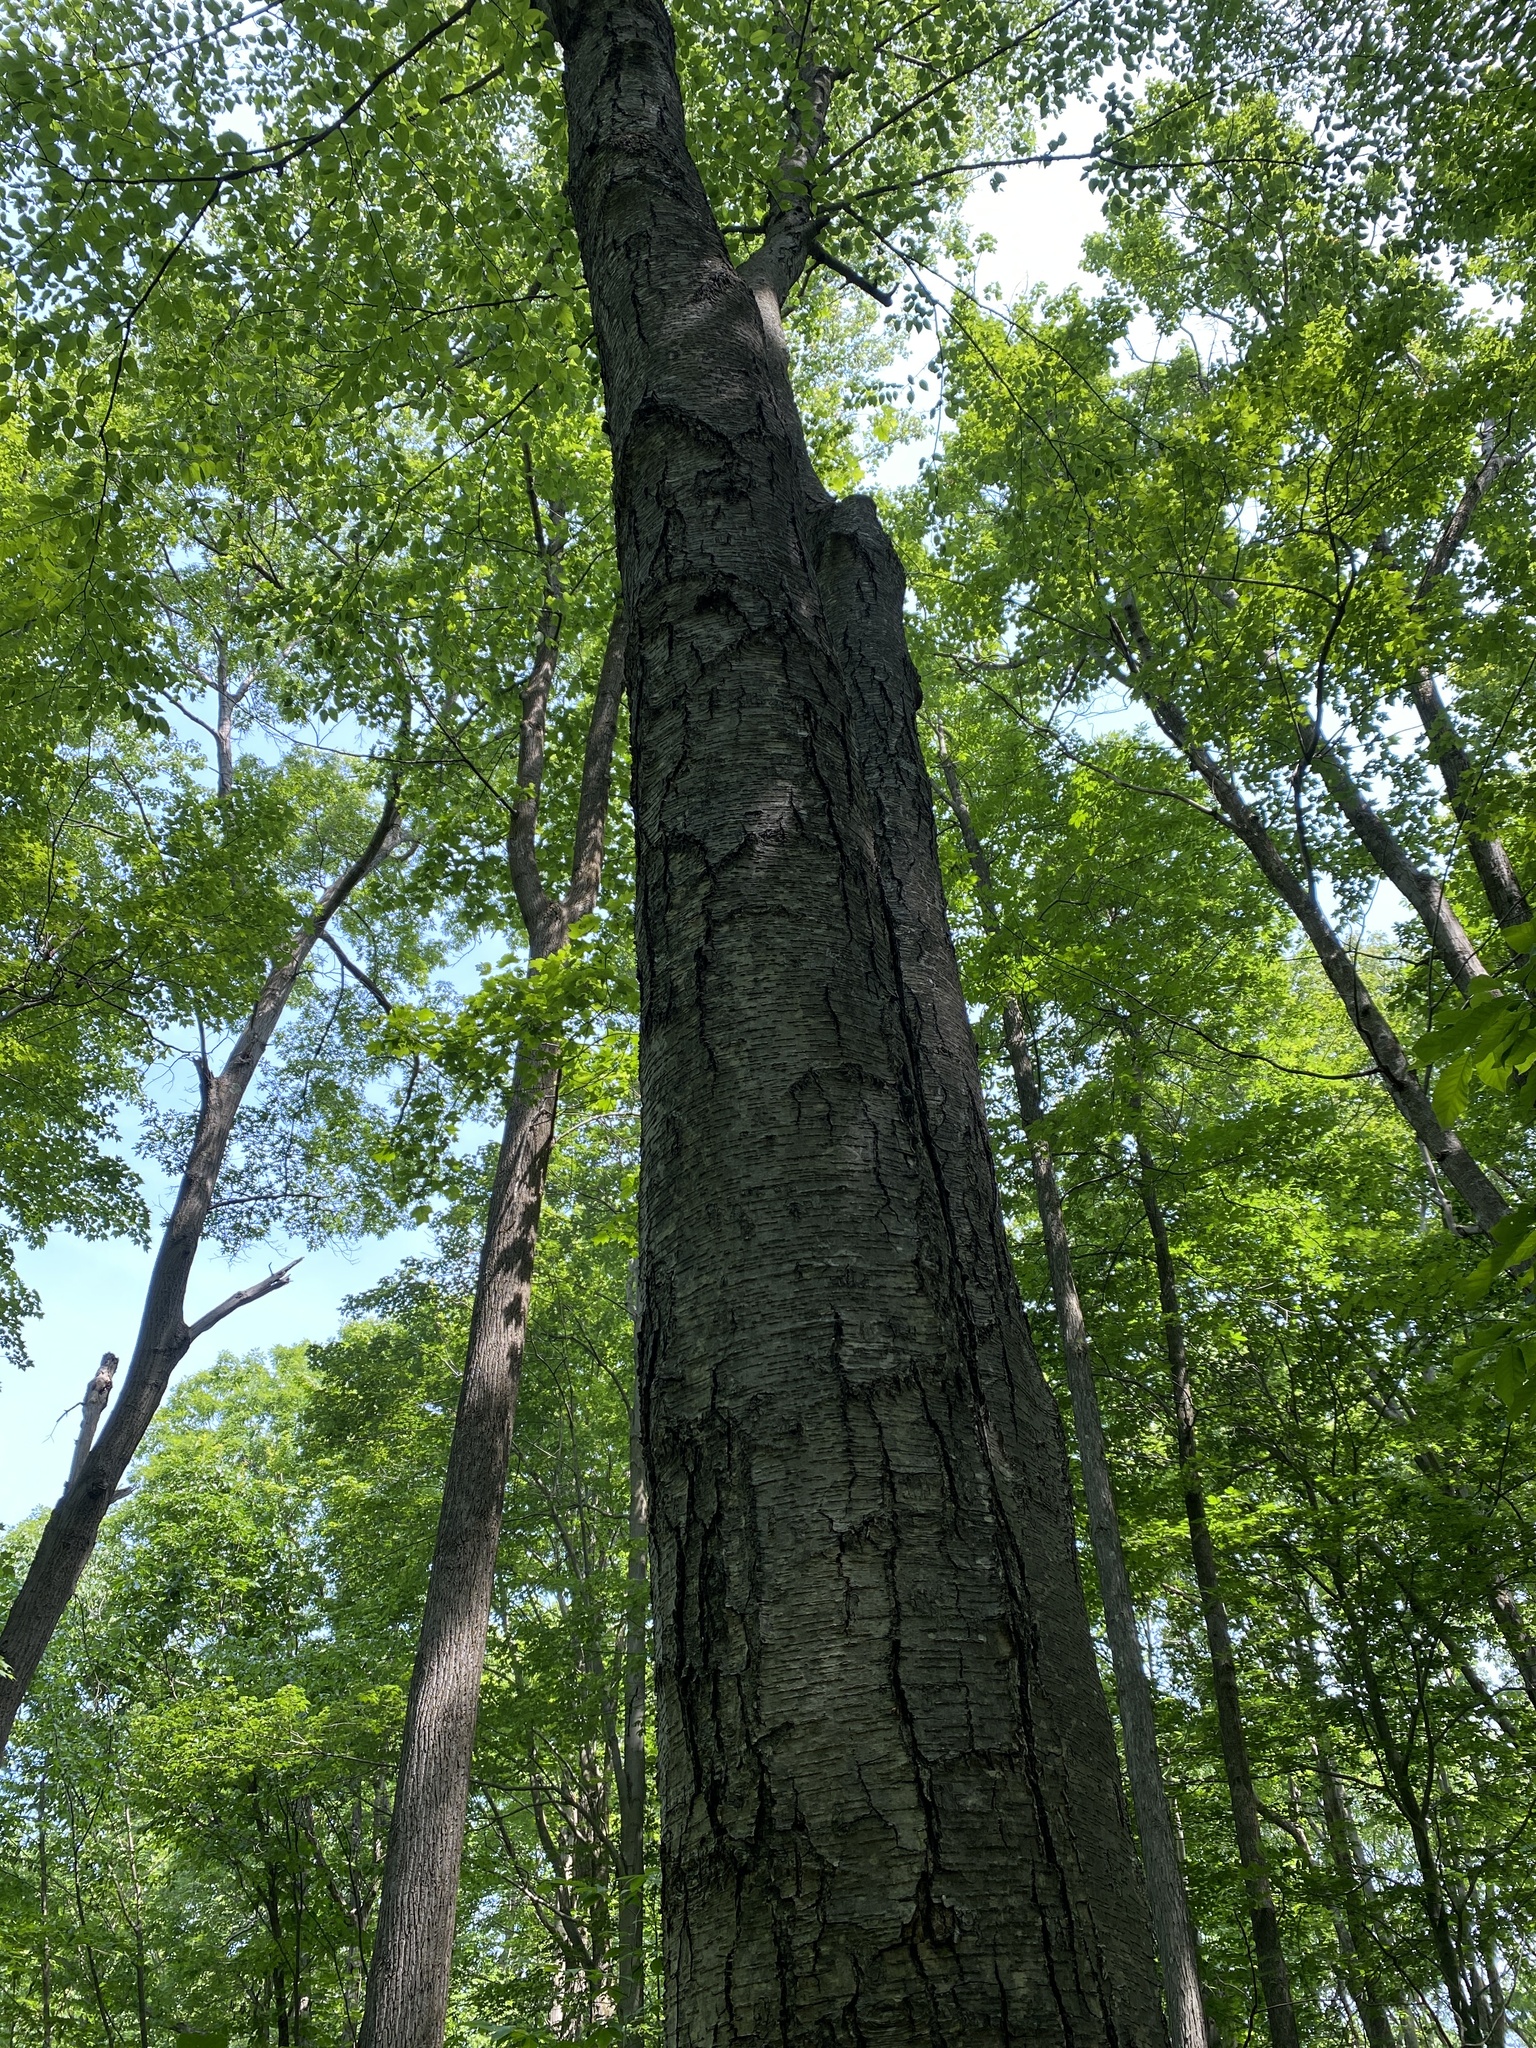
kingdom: Plantae
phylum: Tracheophyta
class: Magnoliopsida
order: Fagales
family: Betulaceae
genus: Betula
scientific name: Betula lenta
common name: Black birch
